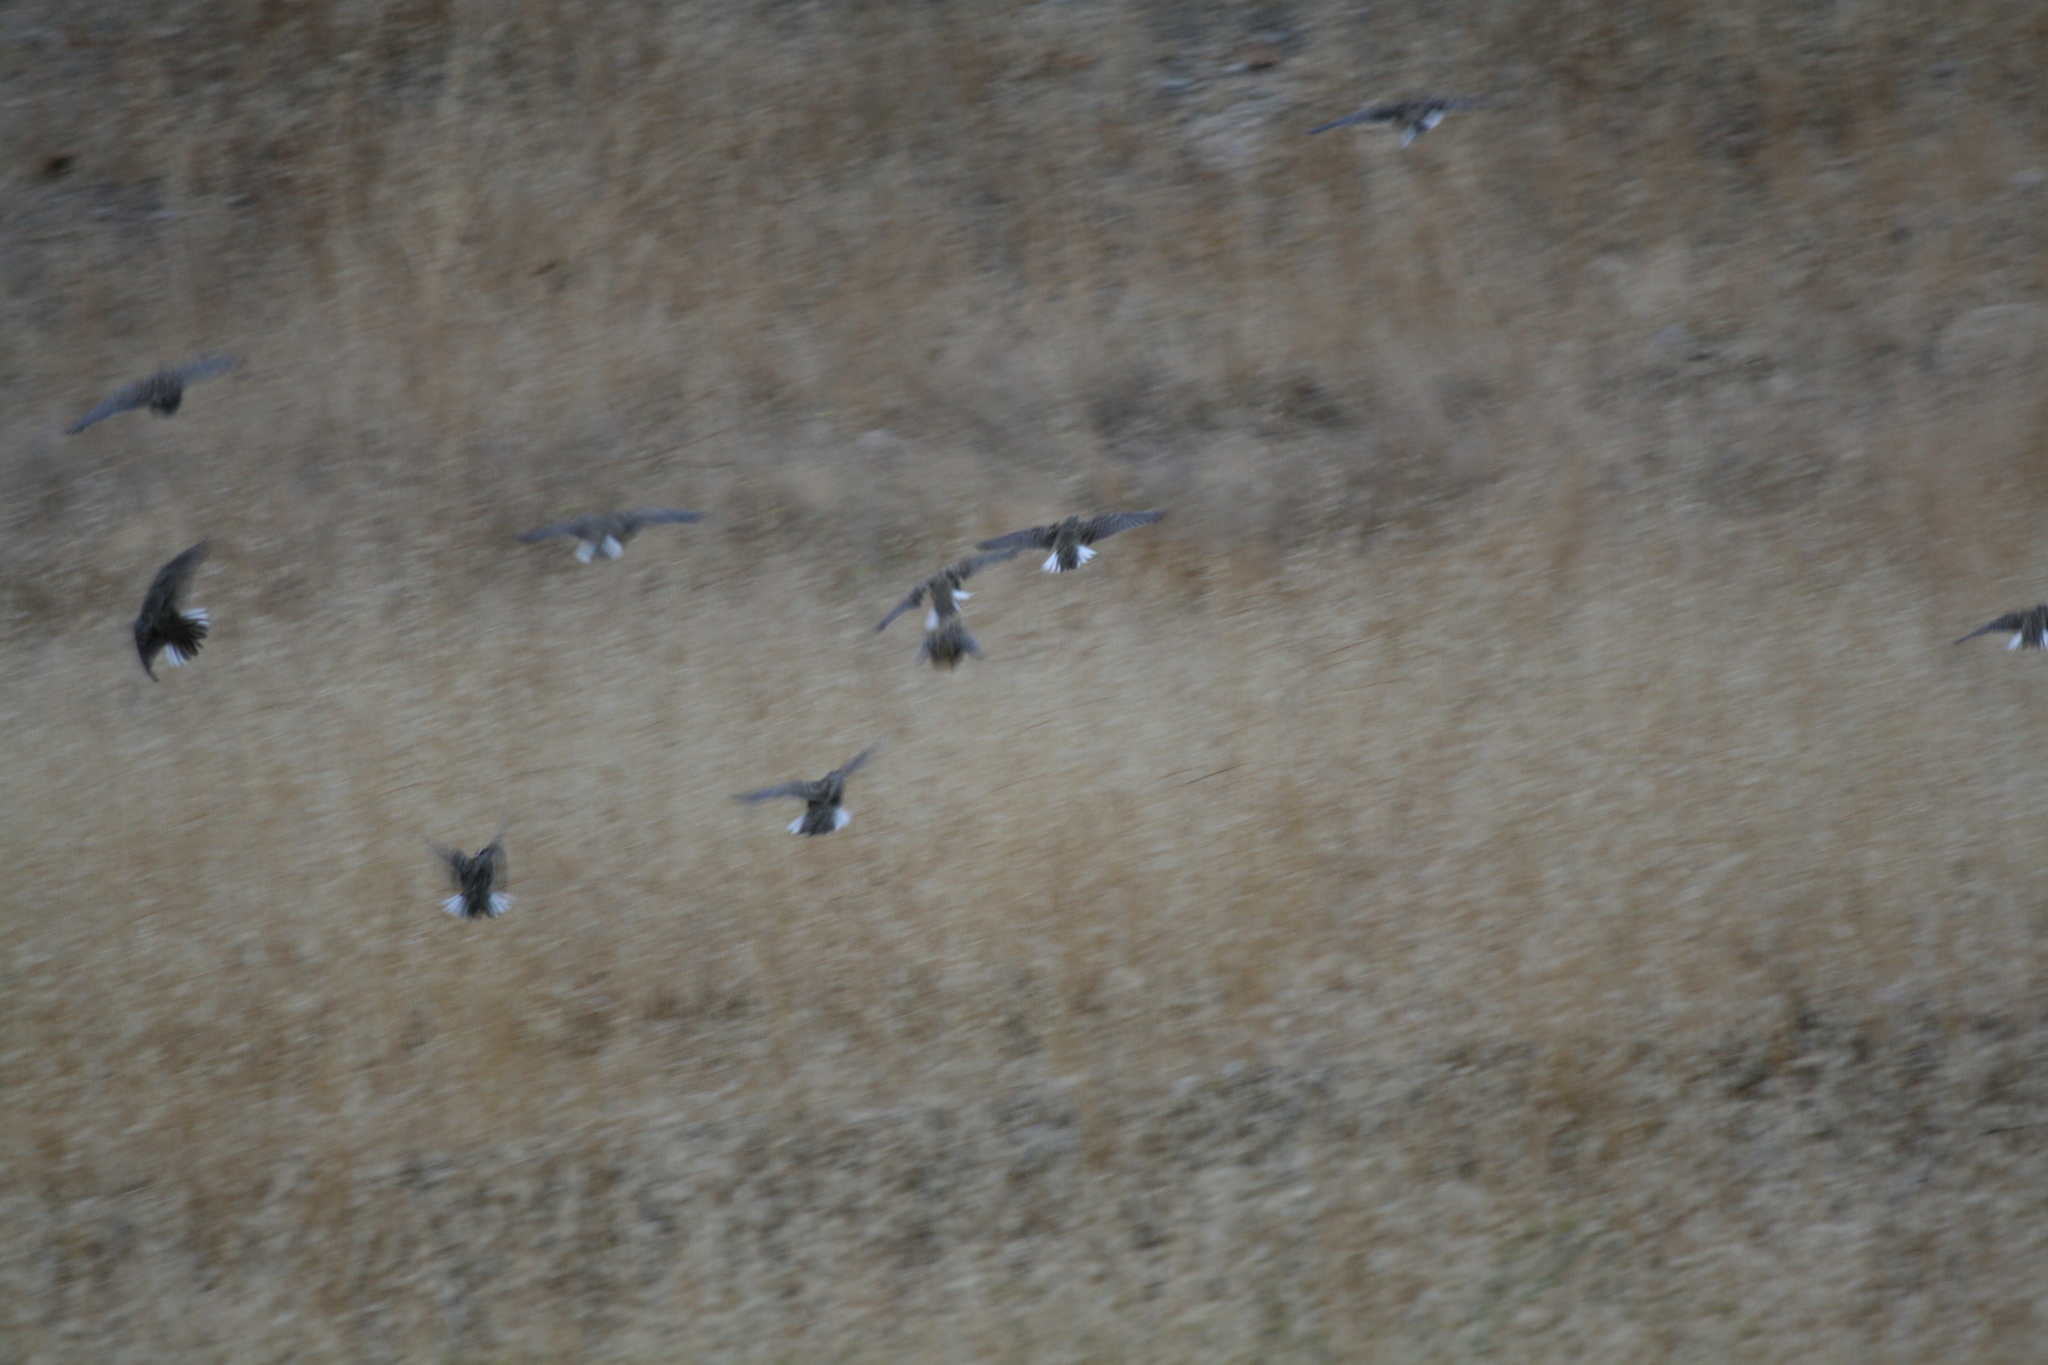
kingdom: Animalia
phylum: Chordata
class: Aves
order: Passeriformes
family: Icteridae
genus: Sturnella
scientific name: Sturnella neglecta
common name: Western meadowlark
